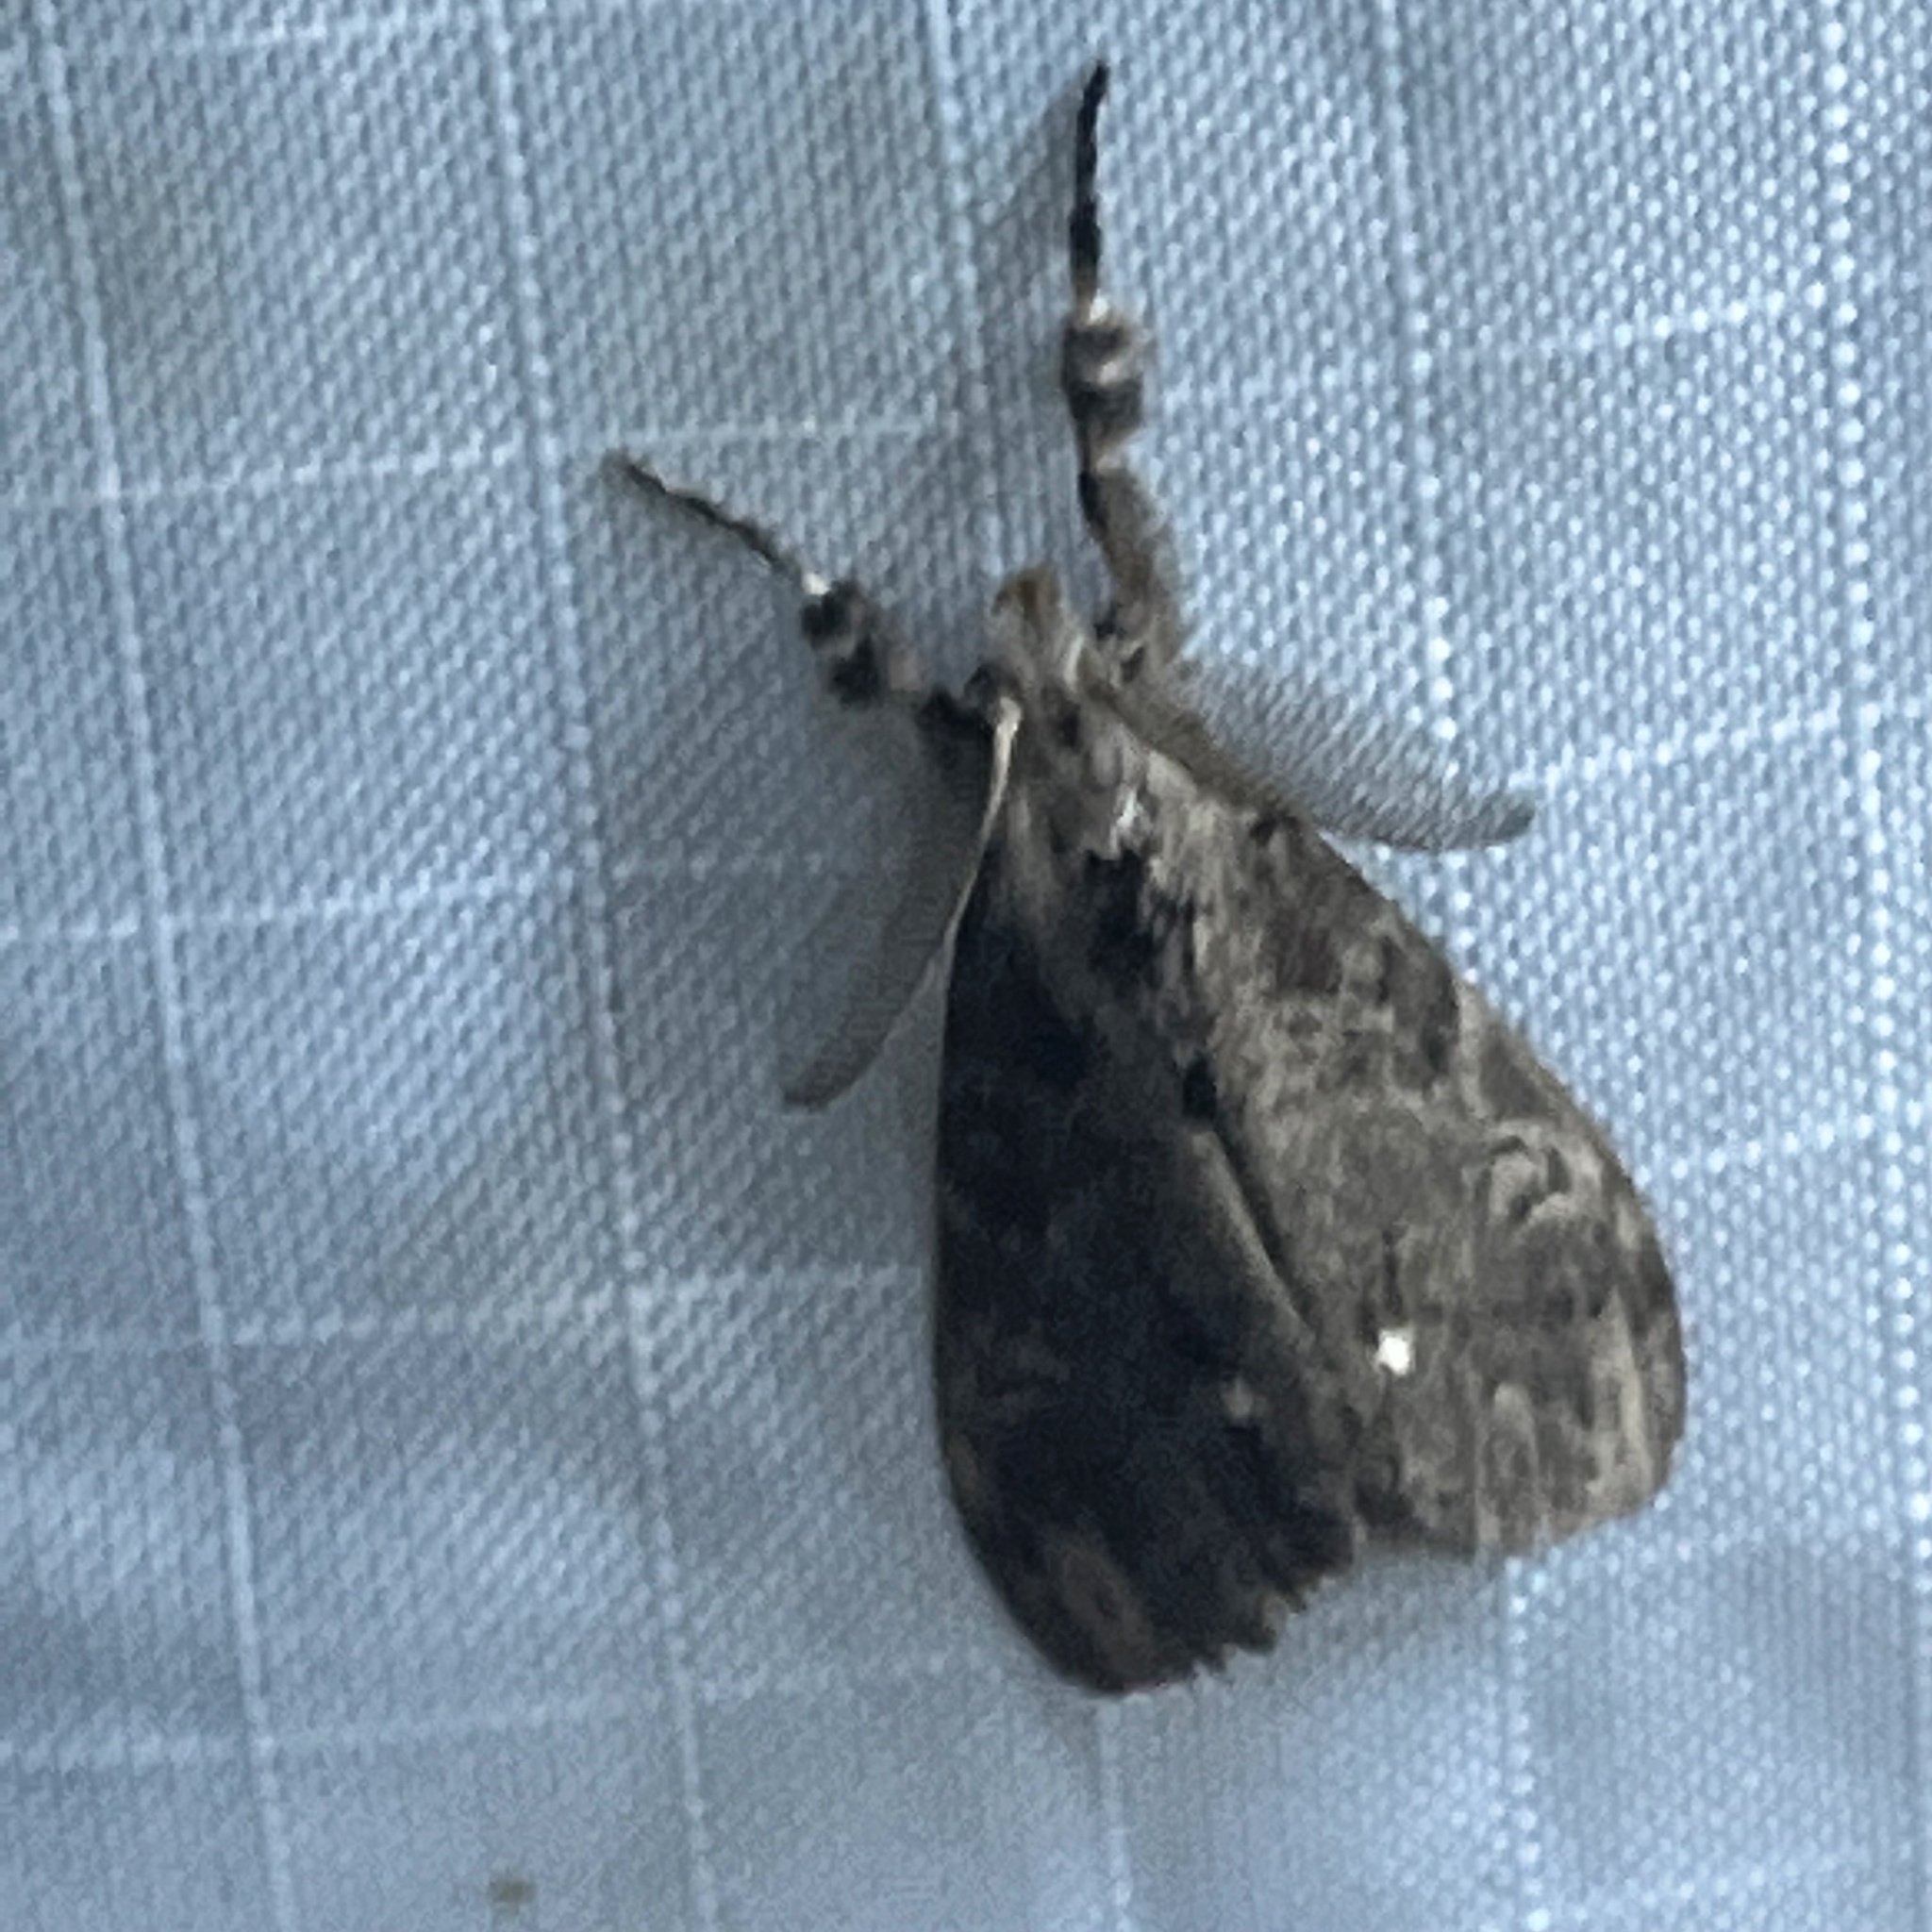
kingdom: Animalia
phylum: Arthropoda
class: Insecta
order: Lepidoptera
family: Erebidae
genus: Orgyia
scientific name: Orgyia leucostigma
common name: White-marked tussock moth
